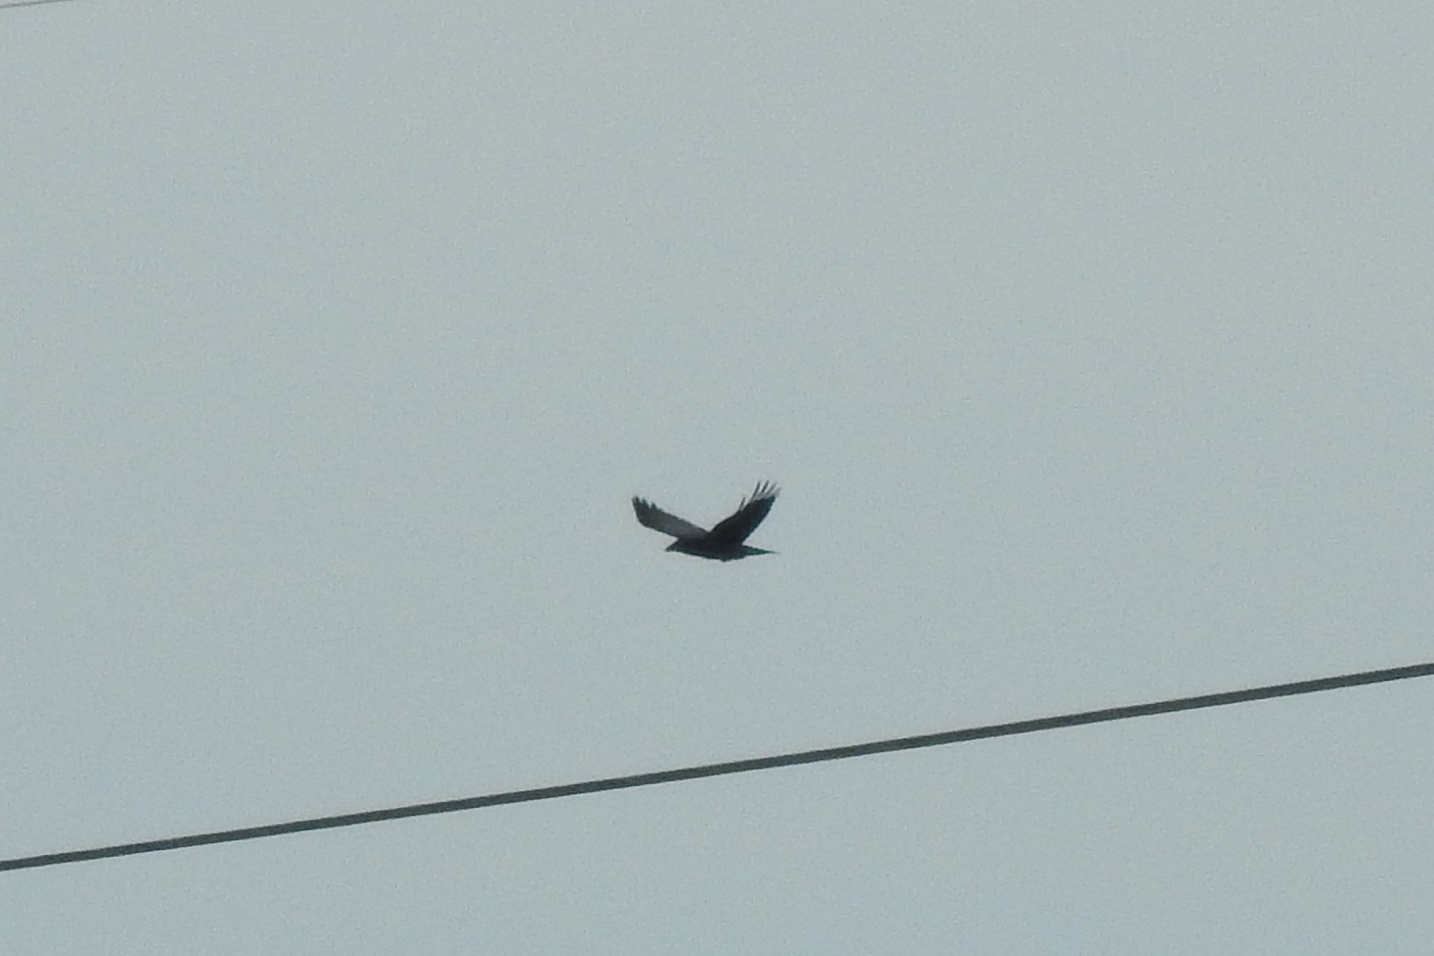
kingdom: Animalia
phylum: Chordata
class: Aves
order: Passeriformes
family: Corvidae
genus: Corvus
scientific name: Corvus corax
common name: Common raven
